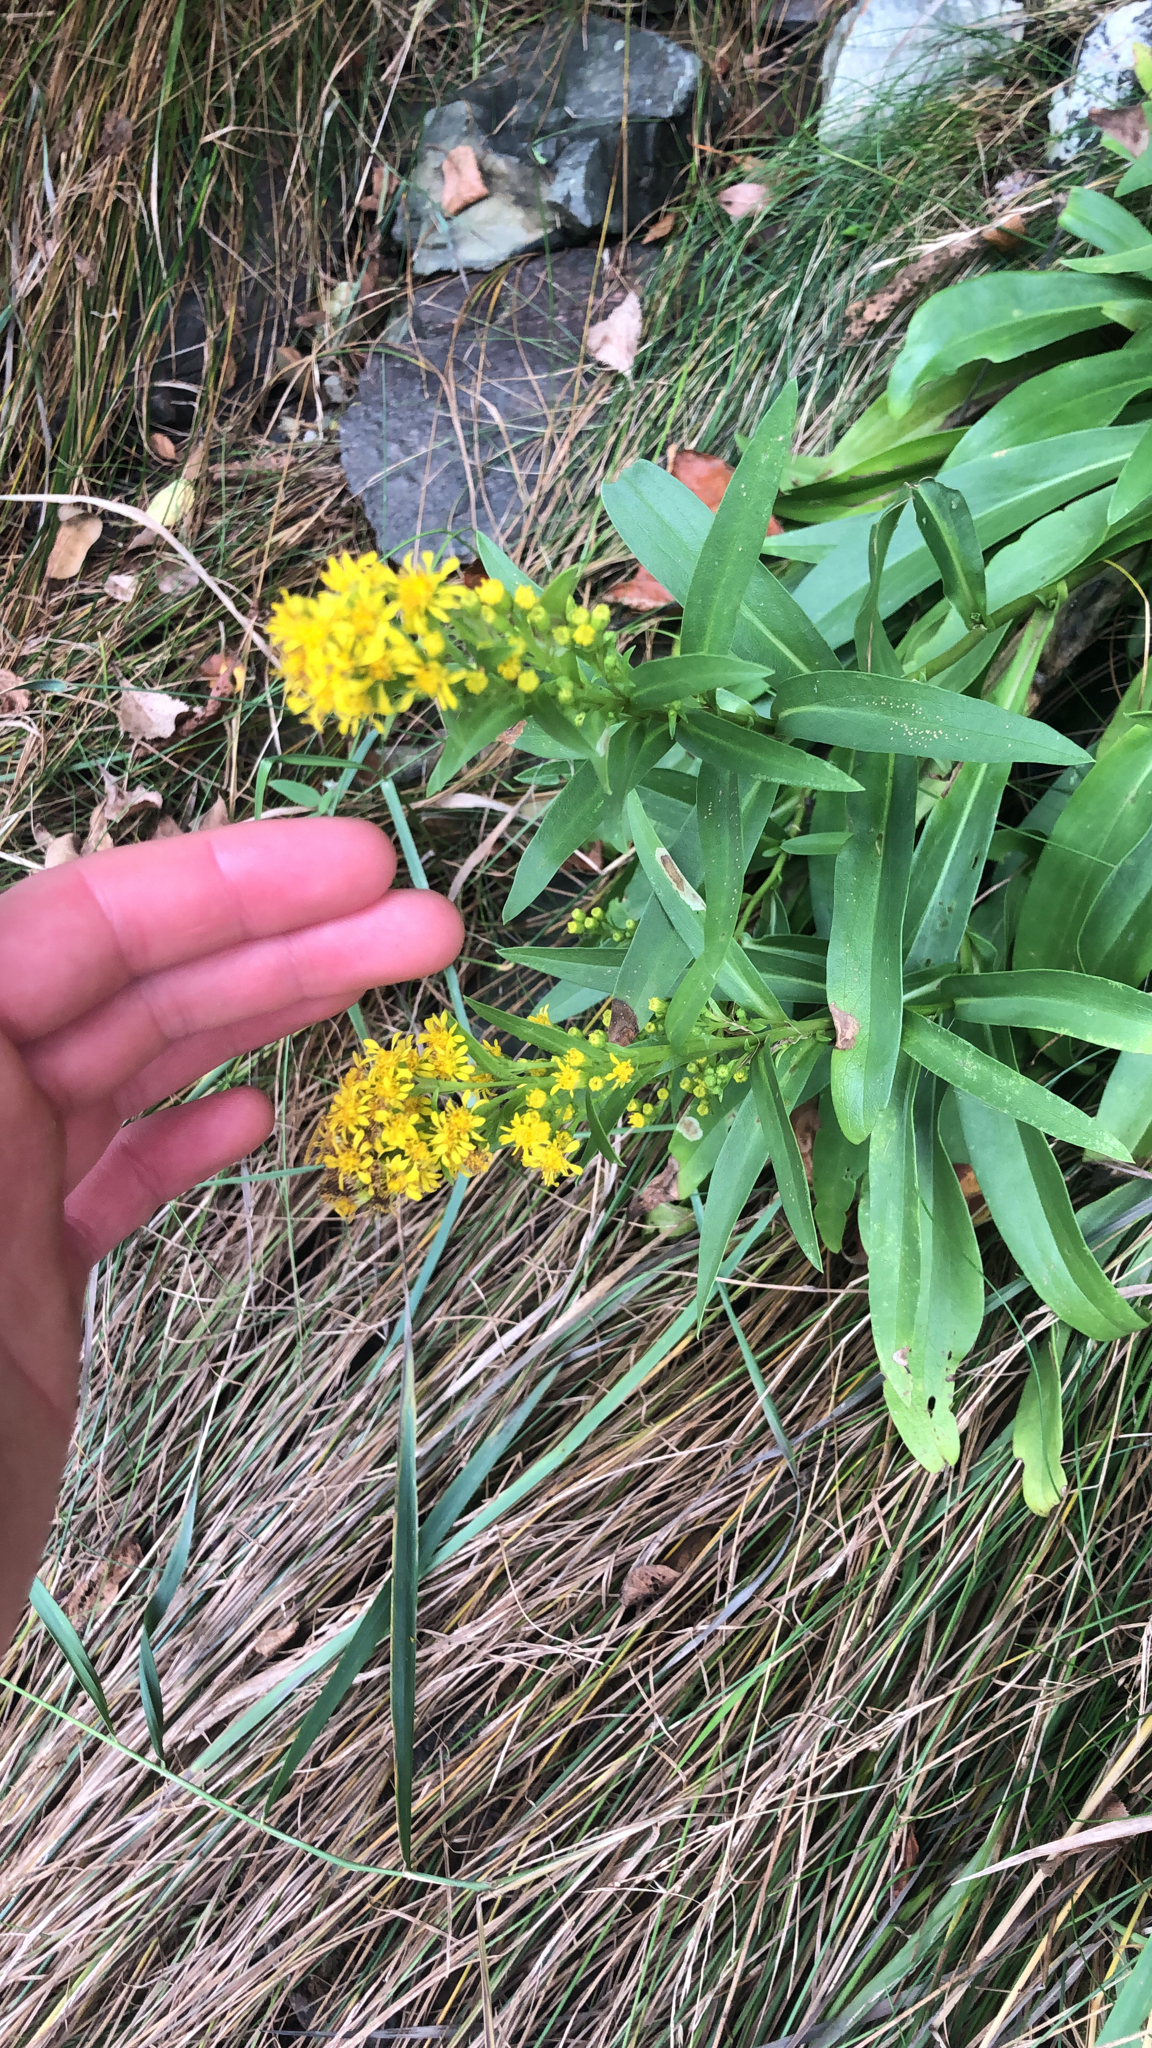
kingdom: Plantae
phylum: Tracheophyta
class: Magnoliopsida
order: Asterales
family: Asteraceae
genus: Solidago
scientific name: Solidago sempervirens
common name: Salt-marsh goldenrod
